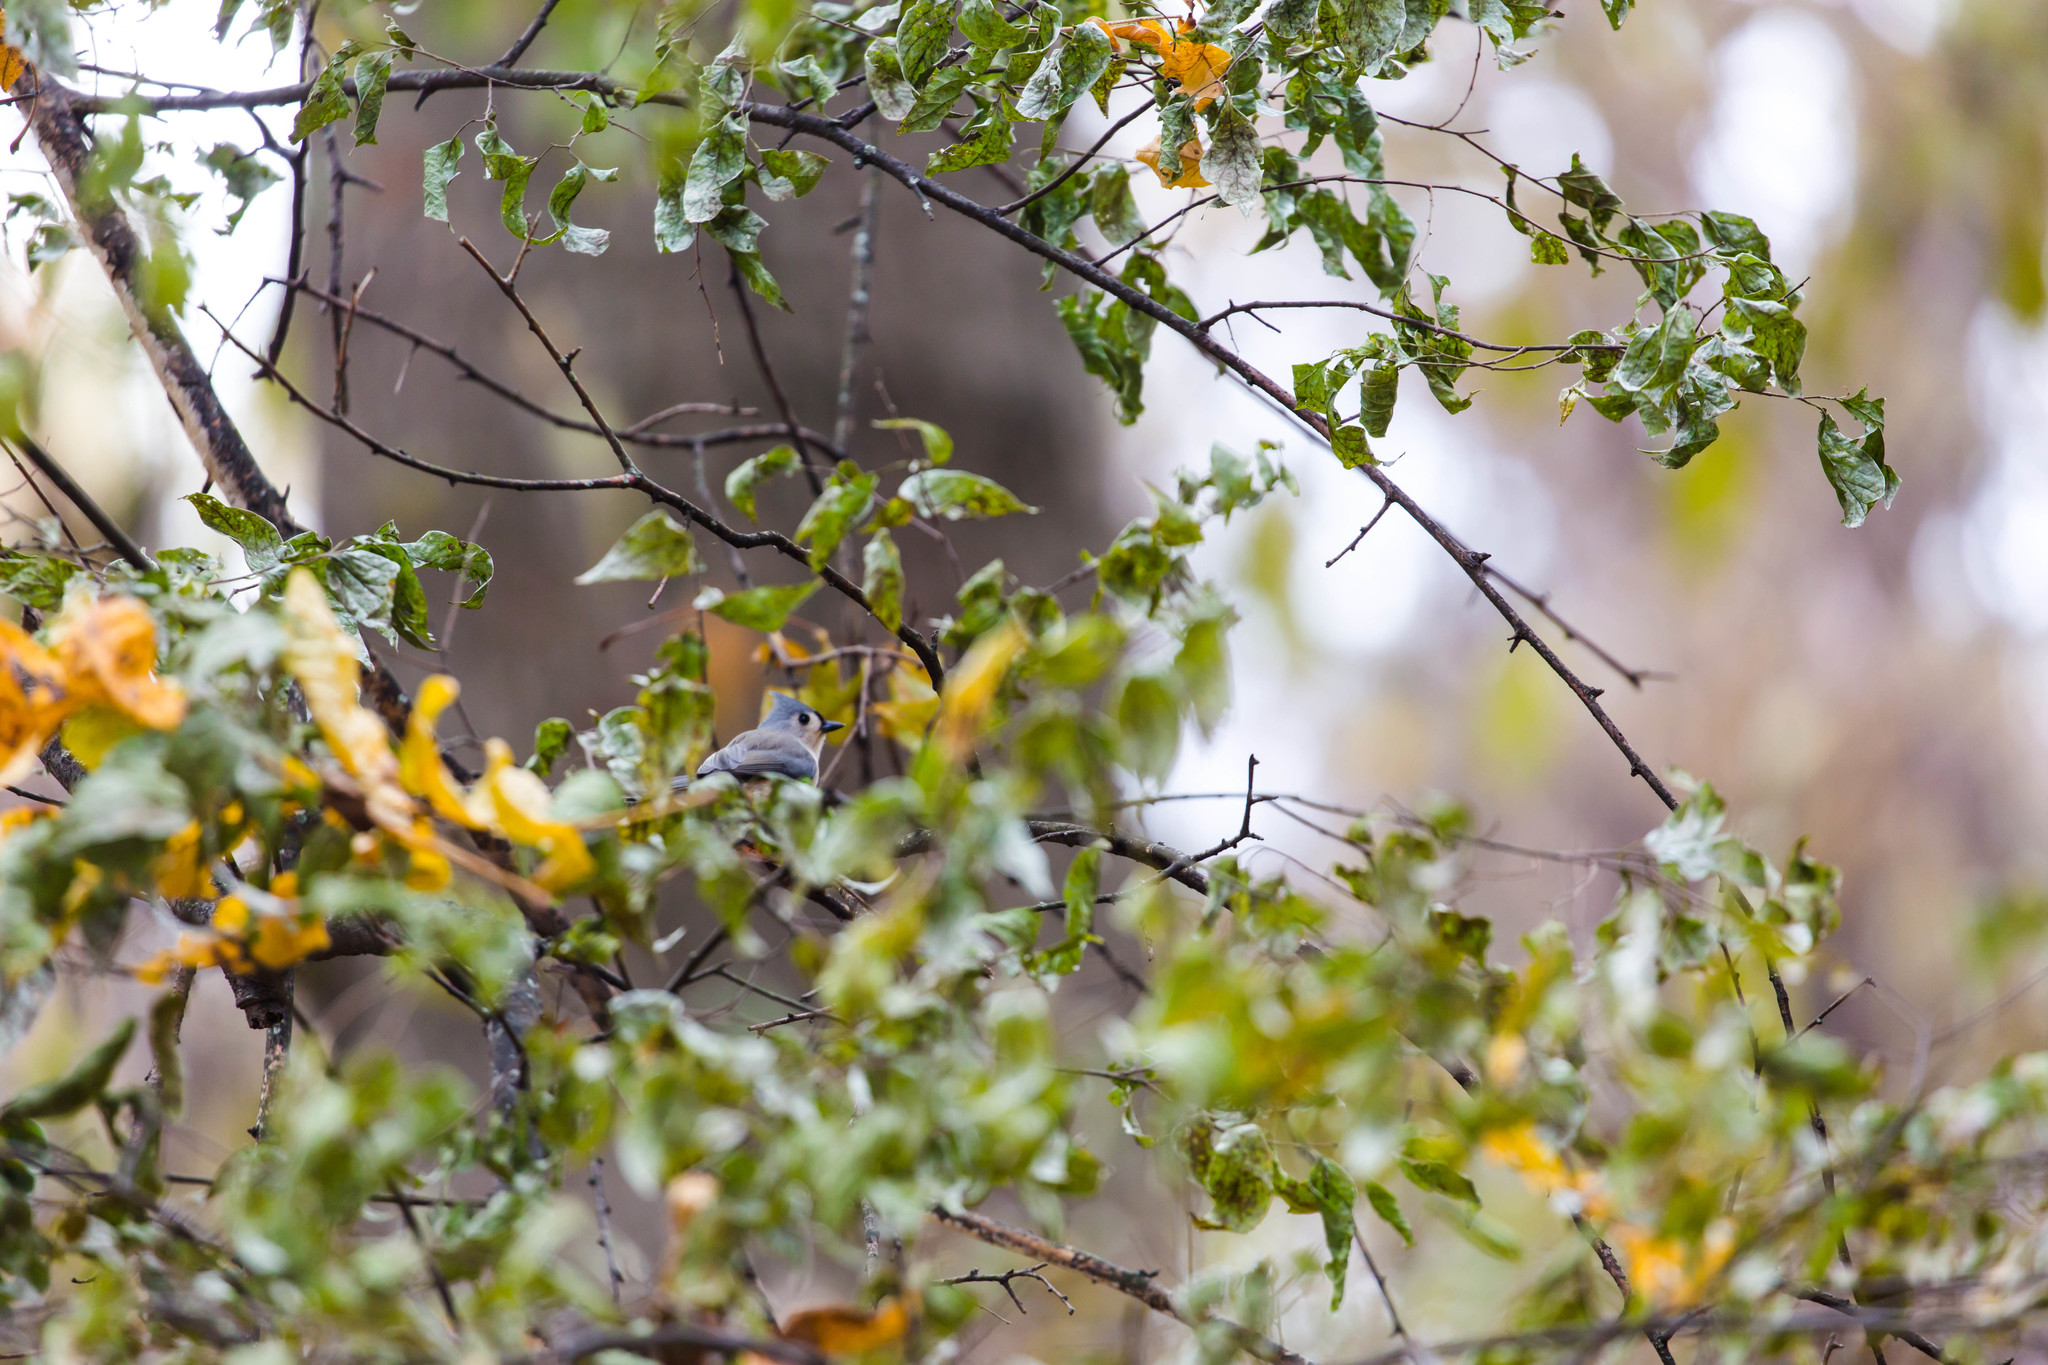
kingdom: Animalia
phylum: Chordata
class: Aves
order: Passeriformes
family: Paridae
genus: Baeolophus
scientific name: Baeolophus bicolor
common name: Tufted titmouse
